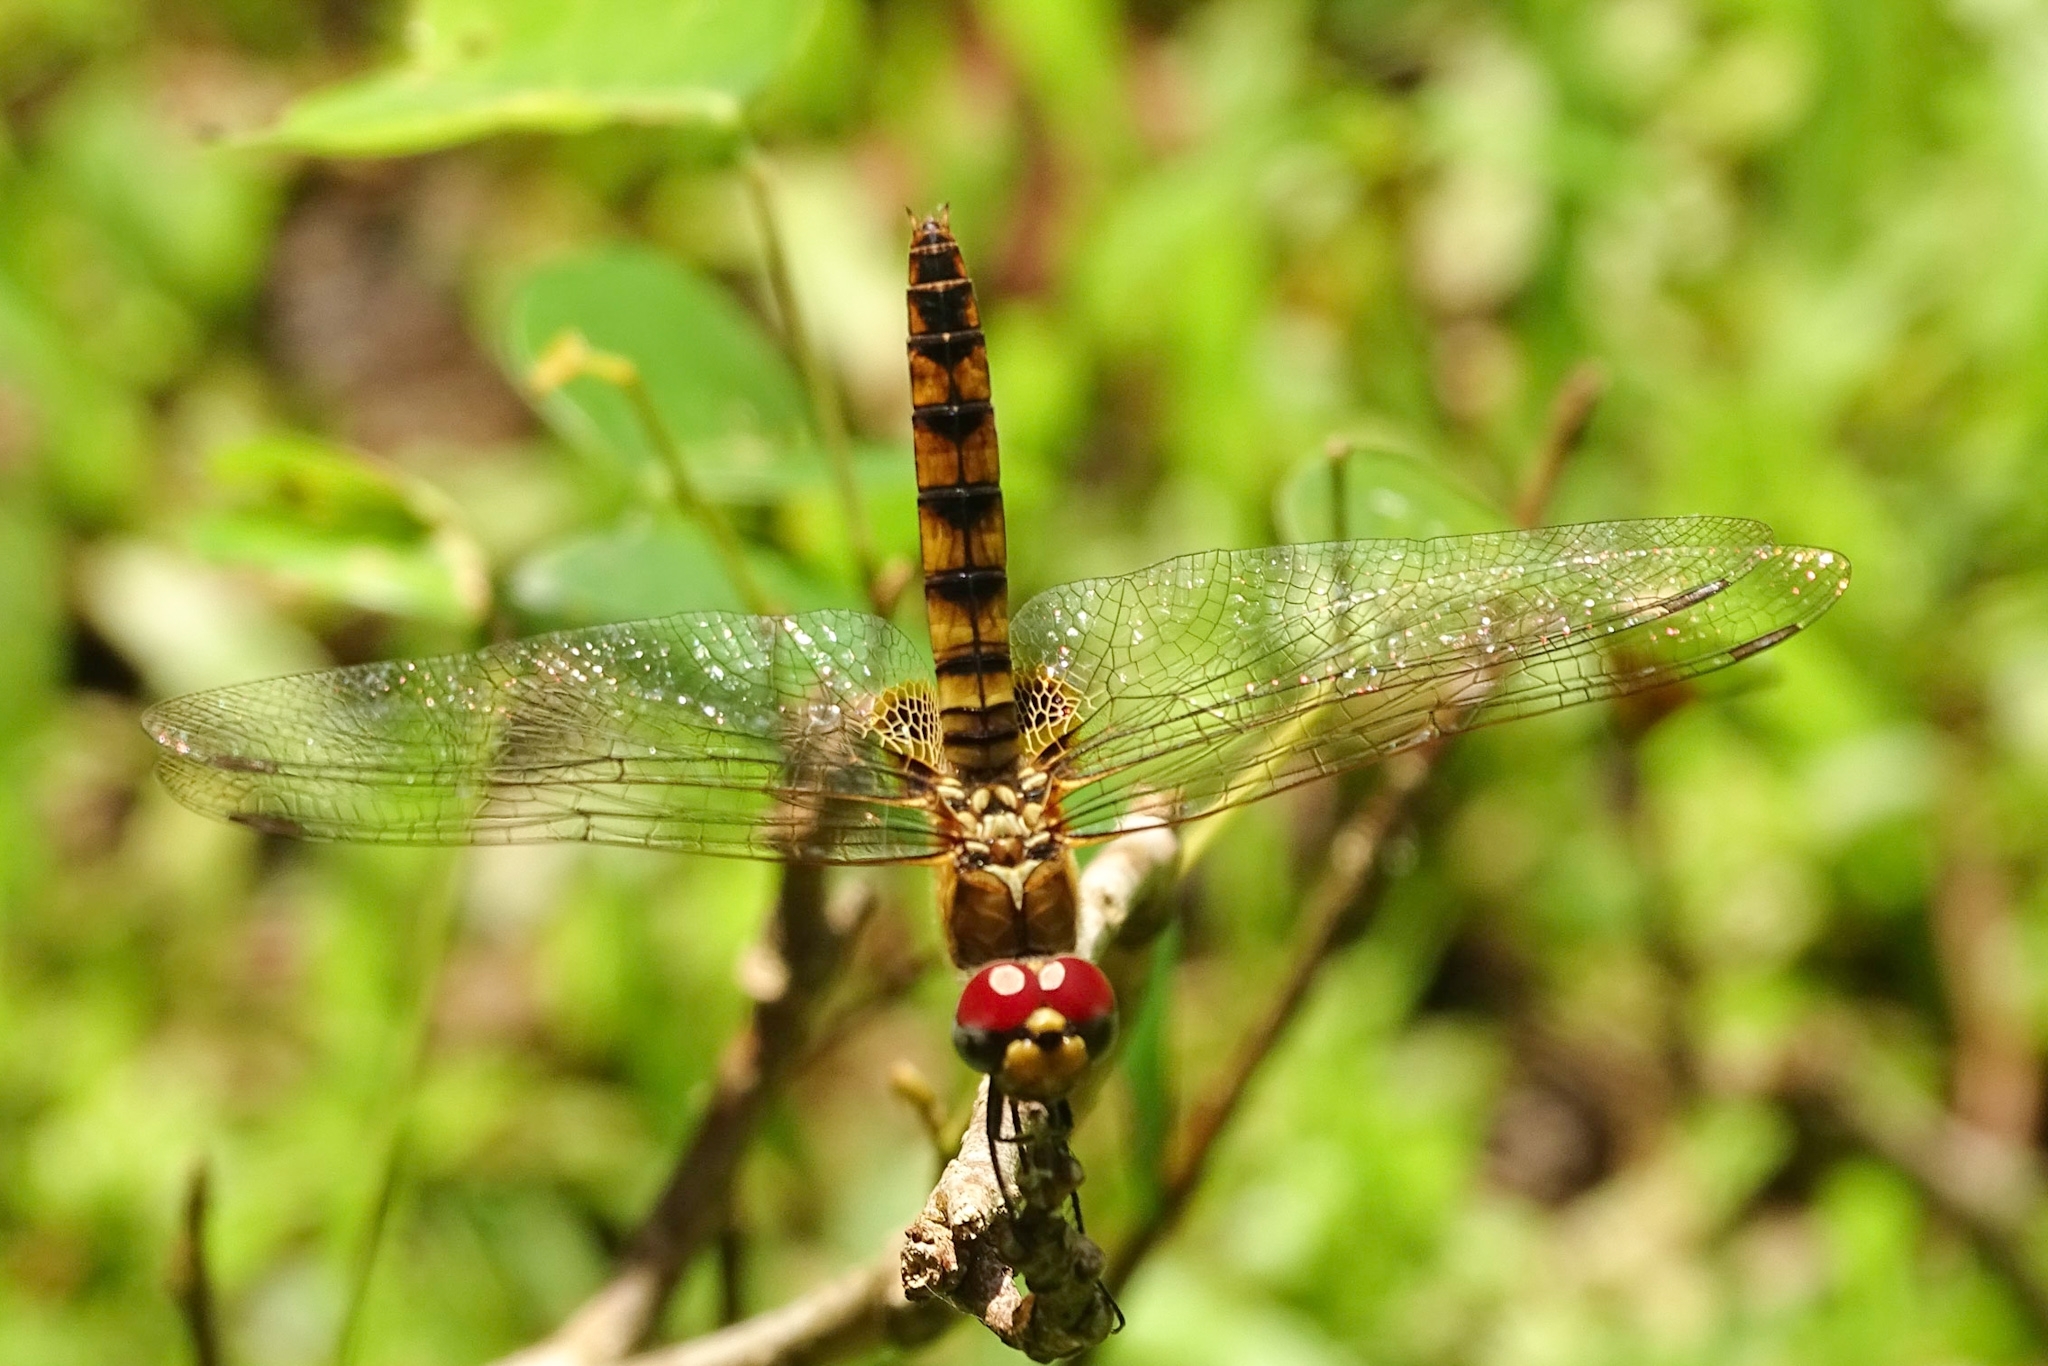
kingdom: Animalia
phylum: Arthropoda
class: Insecta
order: Odonata
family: Libellulidae
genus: Urothemis
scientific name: Urothemis signata
